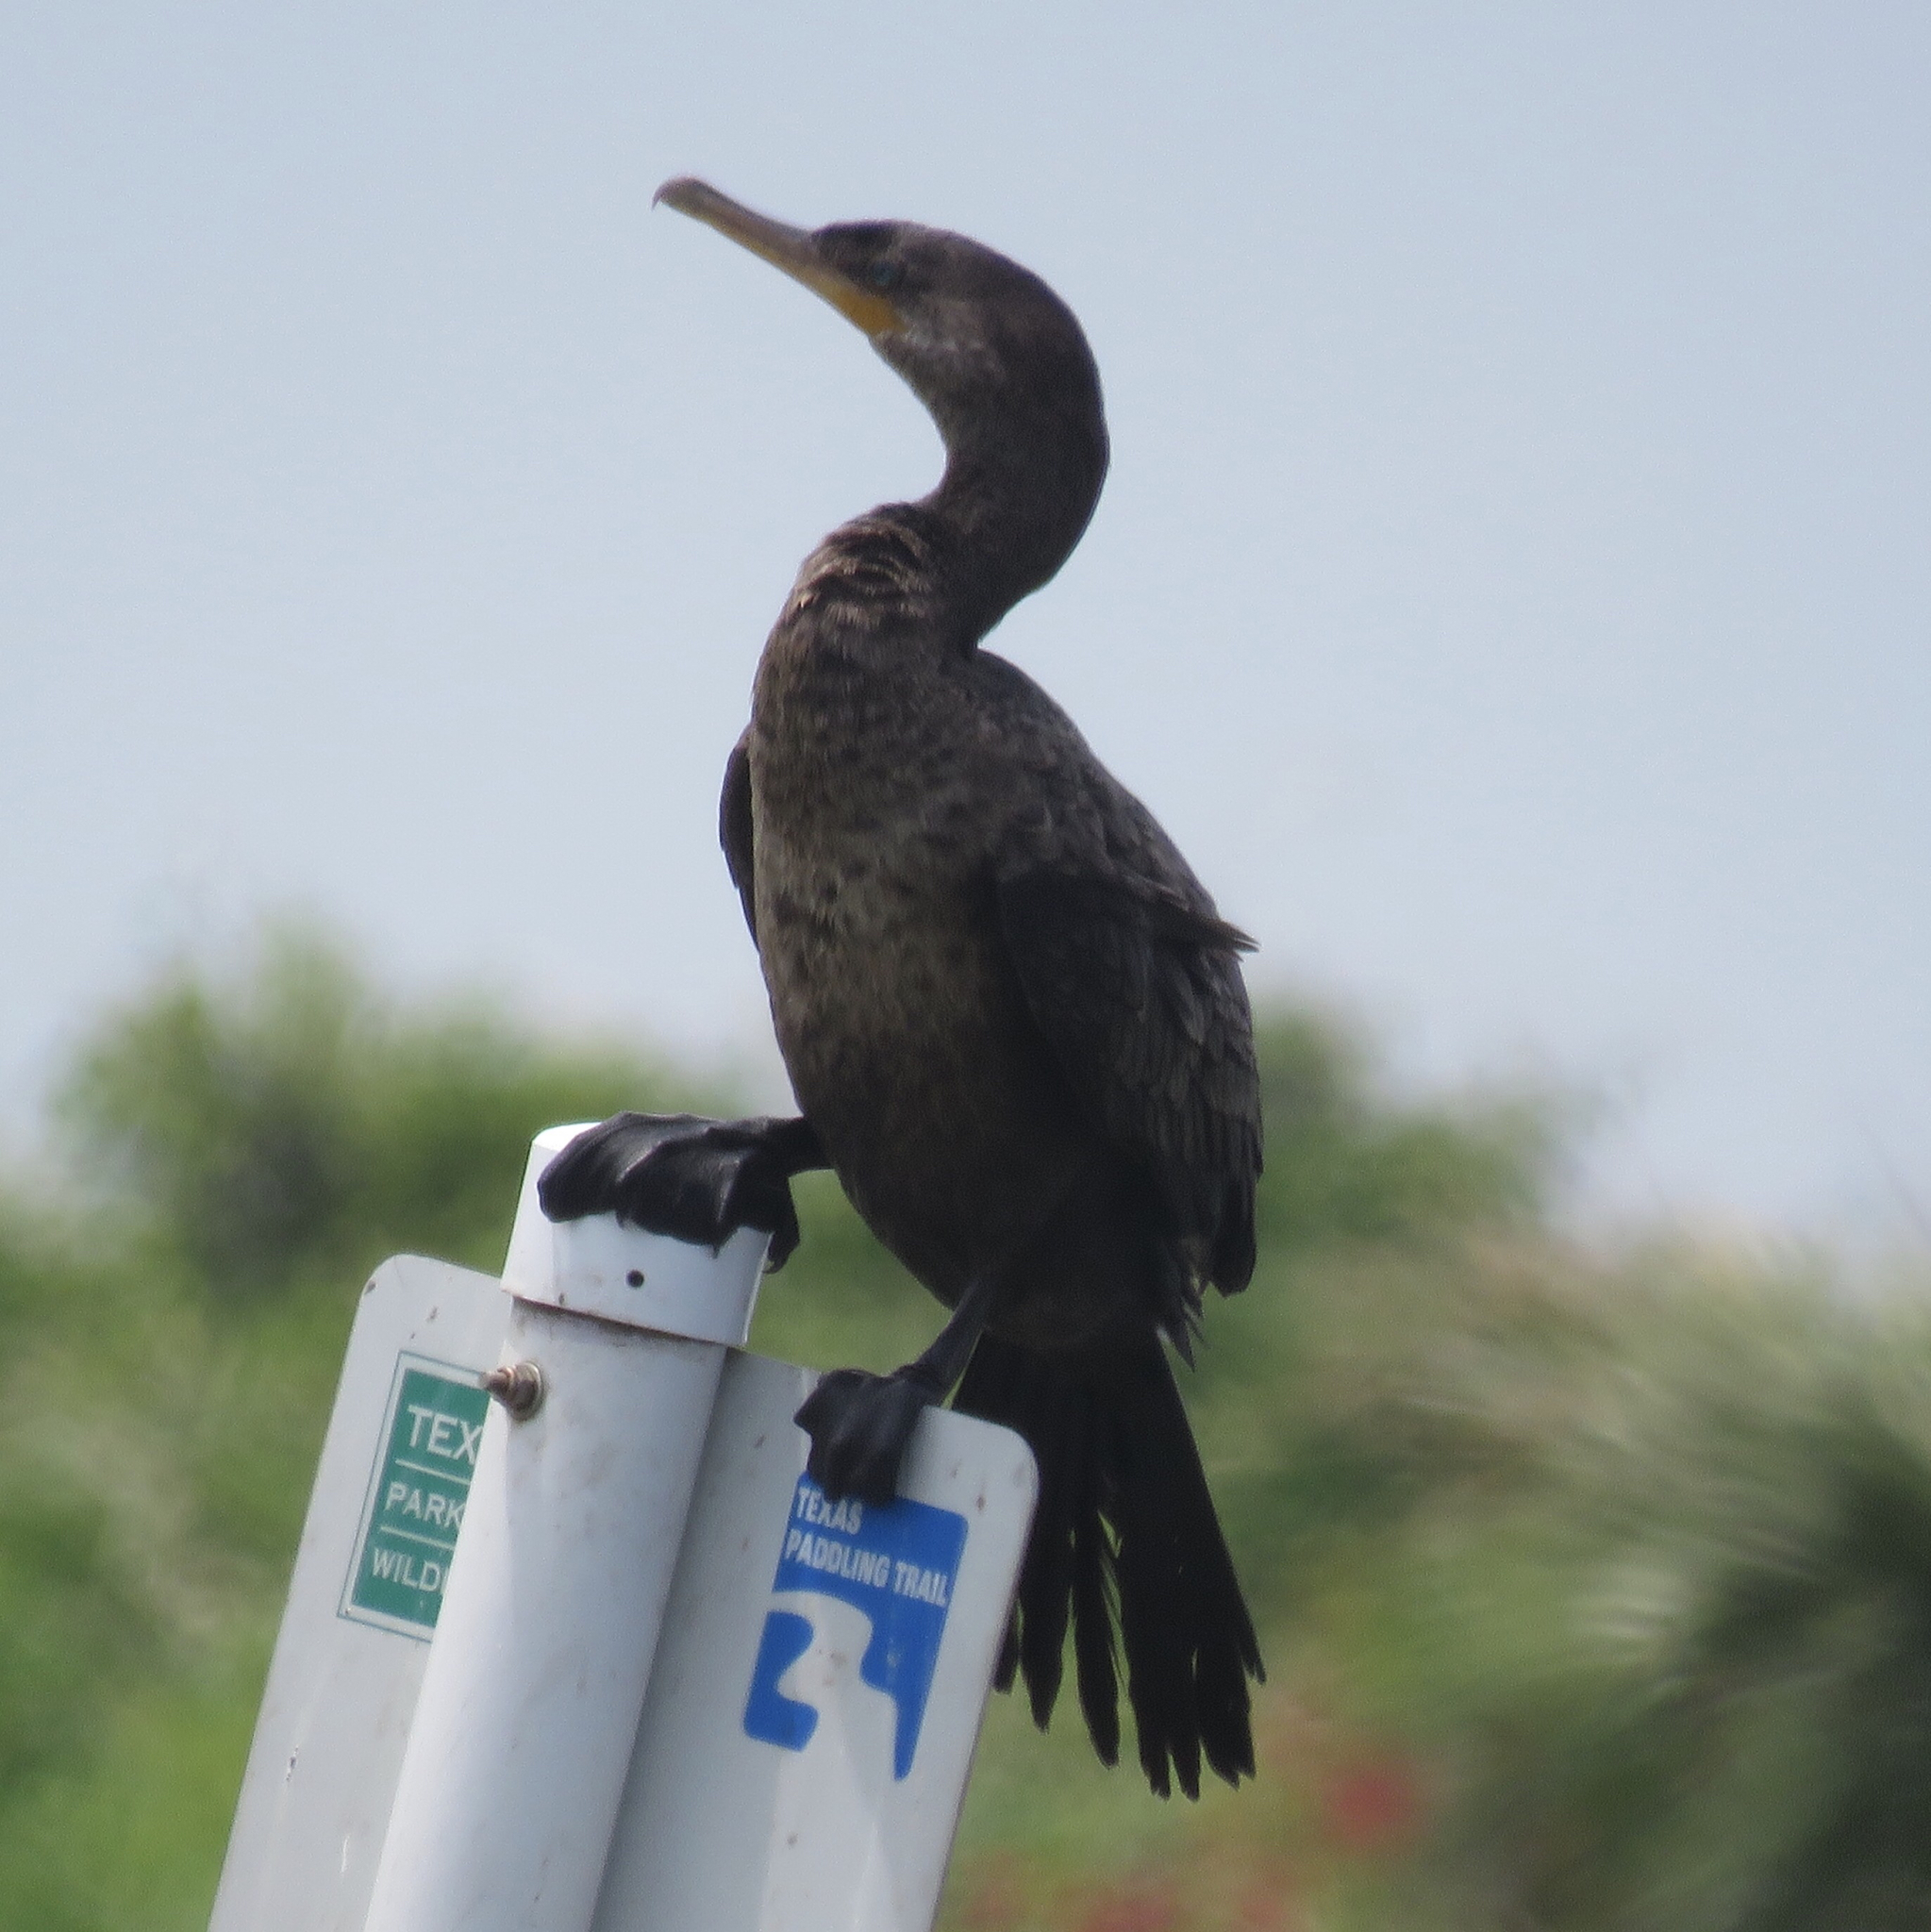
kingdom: Animalia
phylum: Chordata
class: Aves
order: Suliformes
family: Phalacrocoracidae
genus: Phalacrocorax
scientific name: Phalacrocorax brasilianus
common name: Neotropic cormorant
